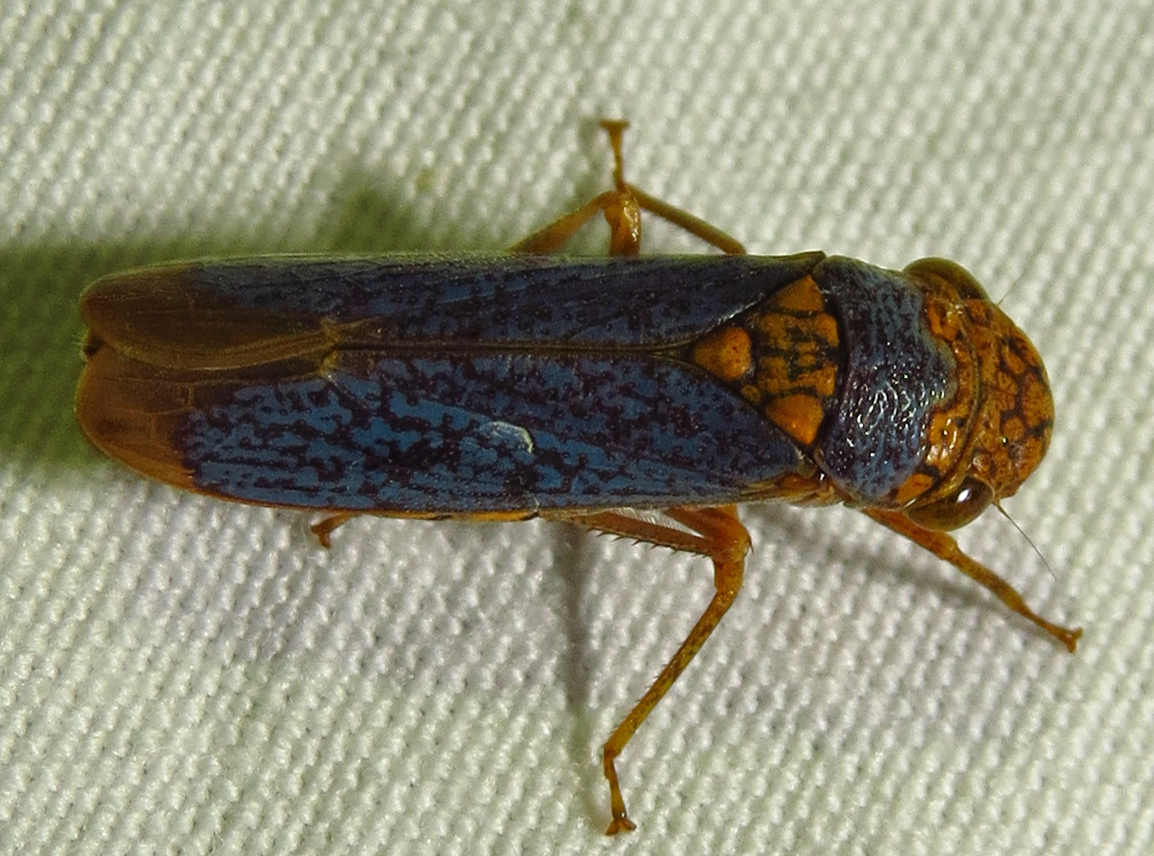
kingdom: Animalia
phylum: Arthropoda
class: Insecta
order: Hemiptera
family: Cicadellidae
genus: Oncometopia
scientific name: Oncometopia orbona
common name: Broad-headed sharpshooter
